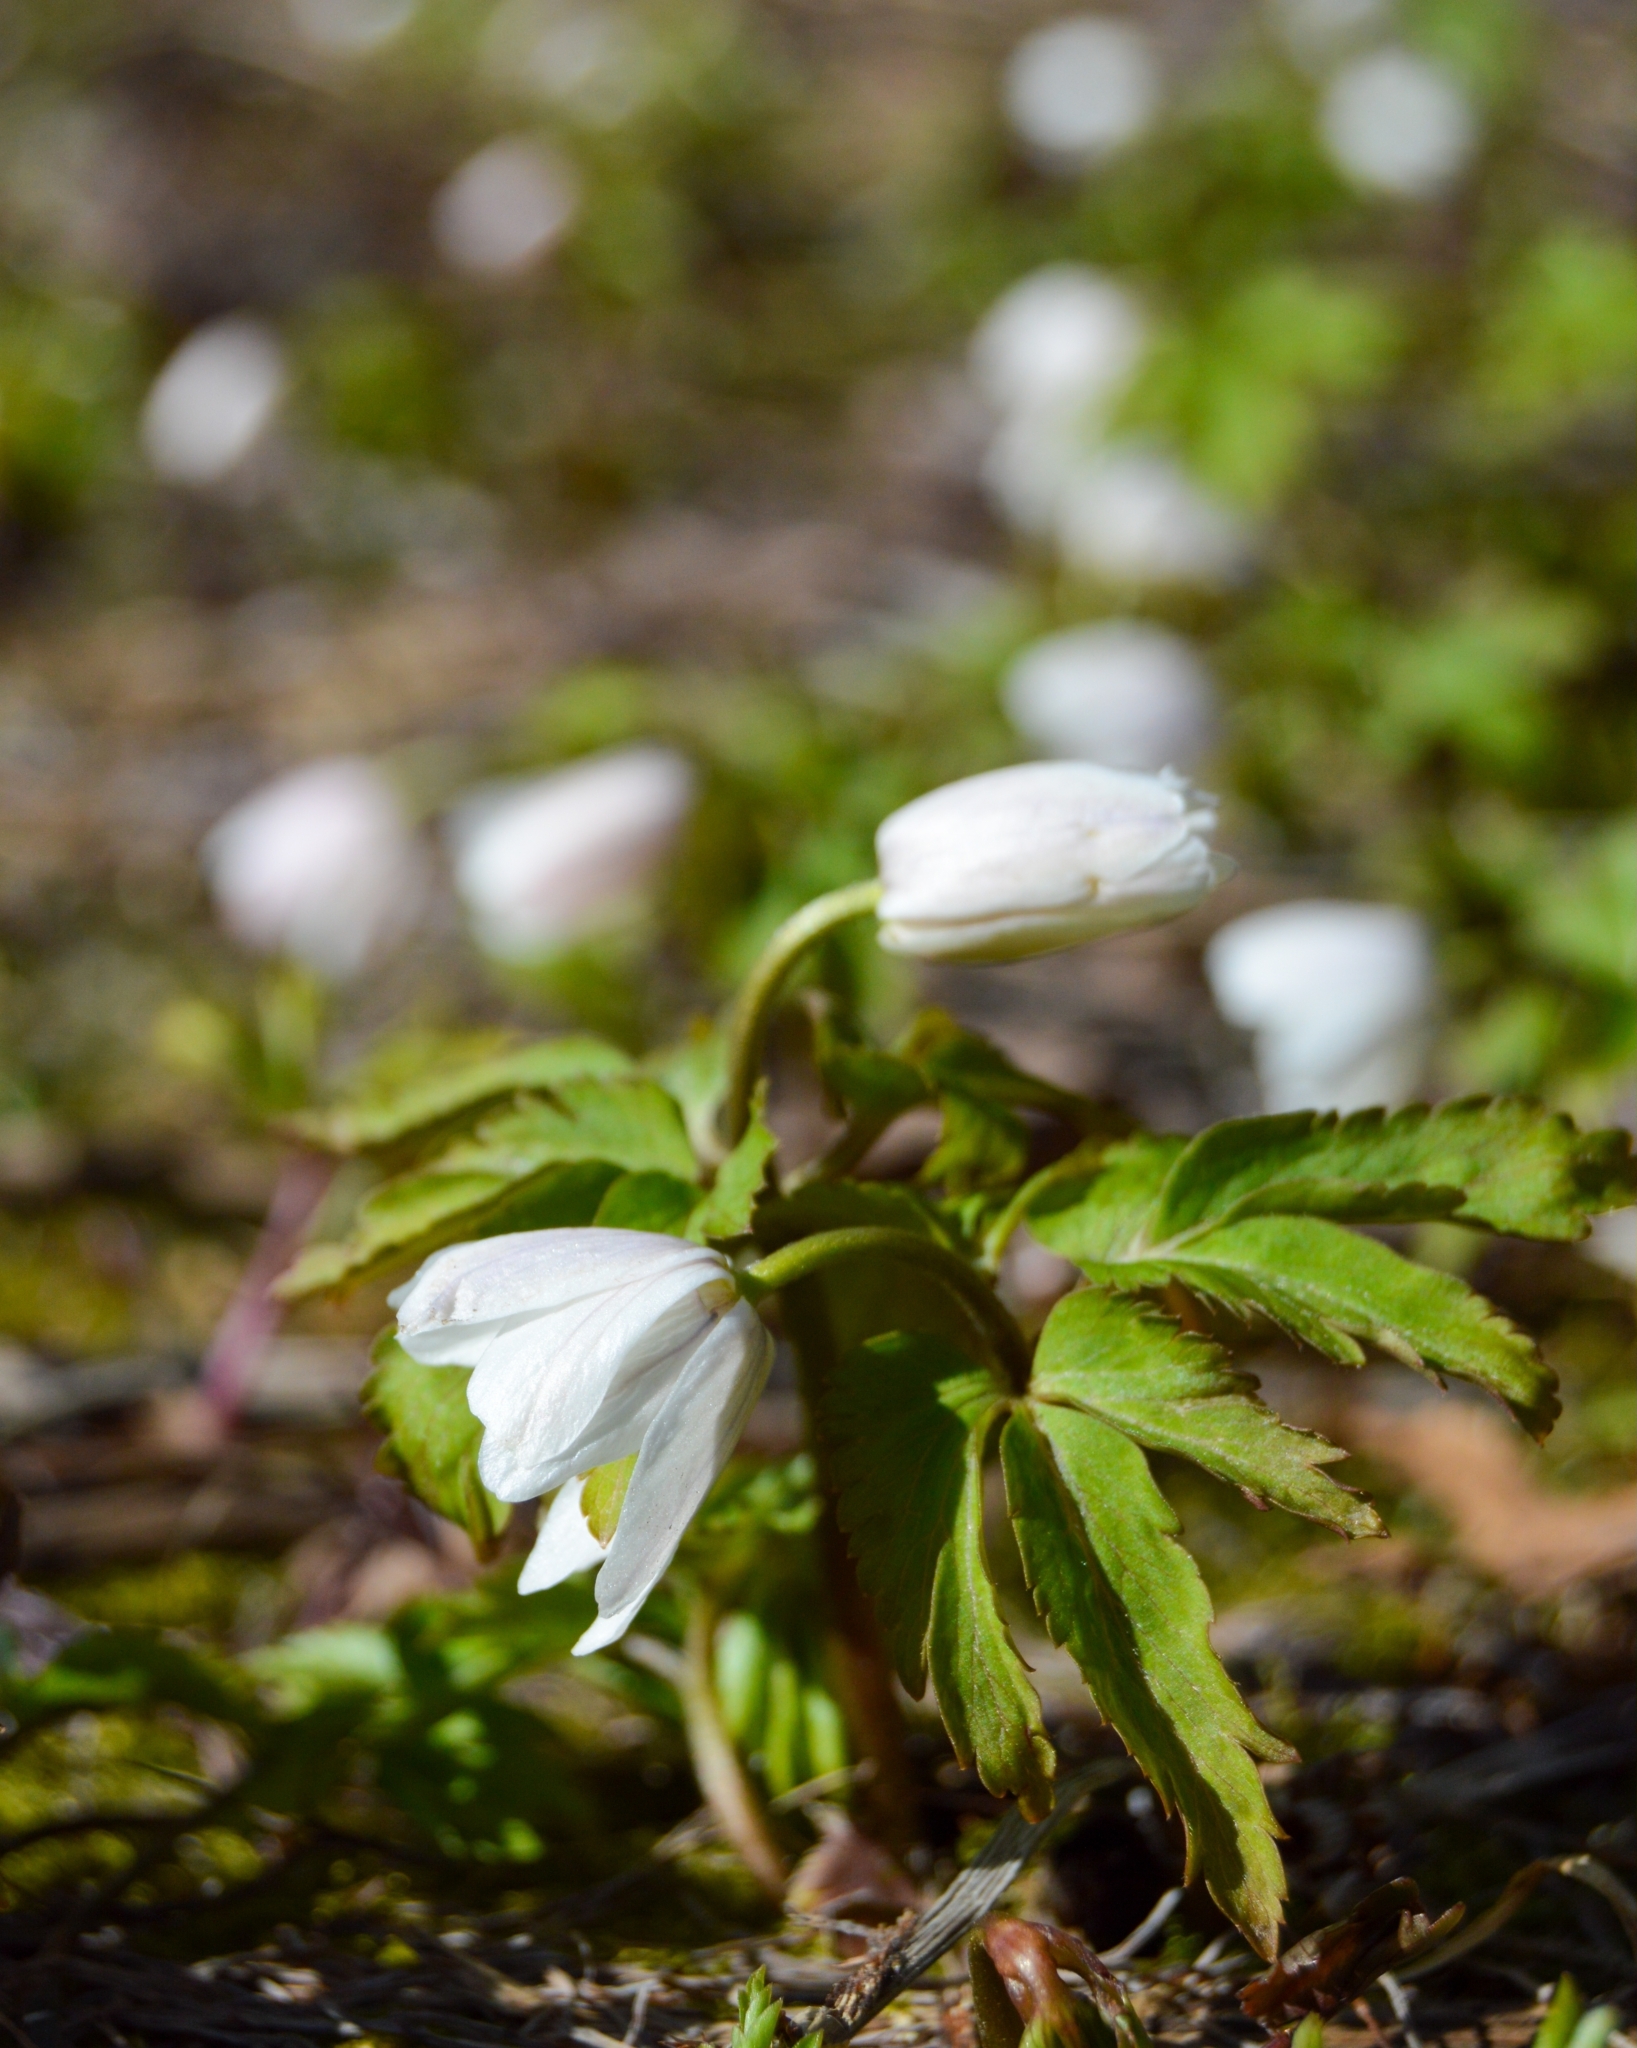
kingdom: Plantae
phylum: Tracheophyta
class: Magnoliopsida
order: Ranunculales
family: Ranunculaceae
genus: Anemone
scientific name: Anemone altaica
